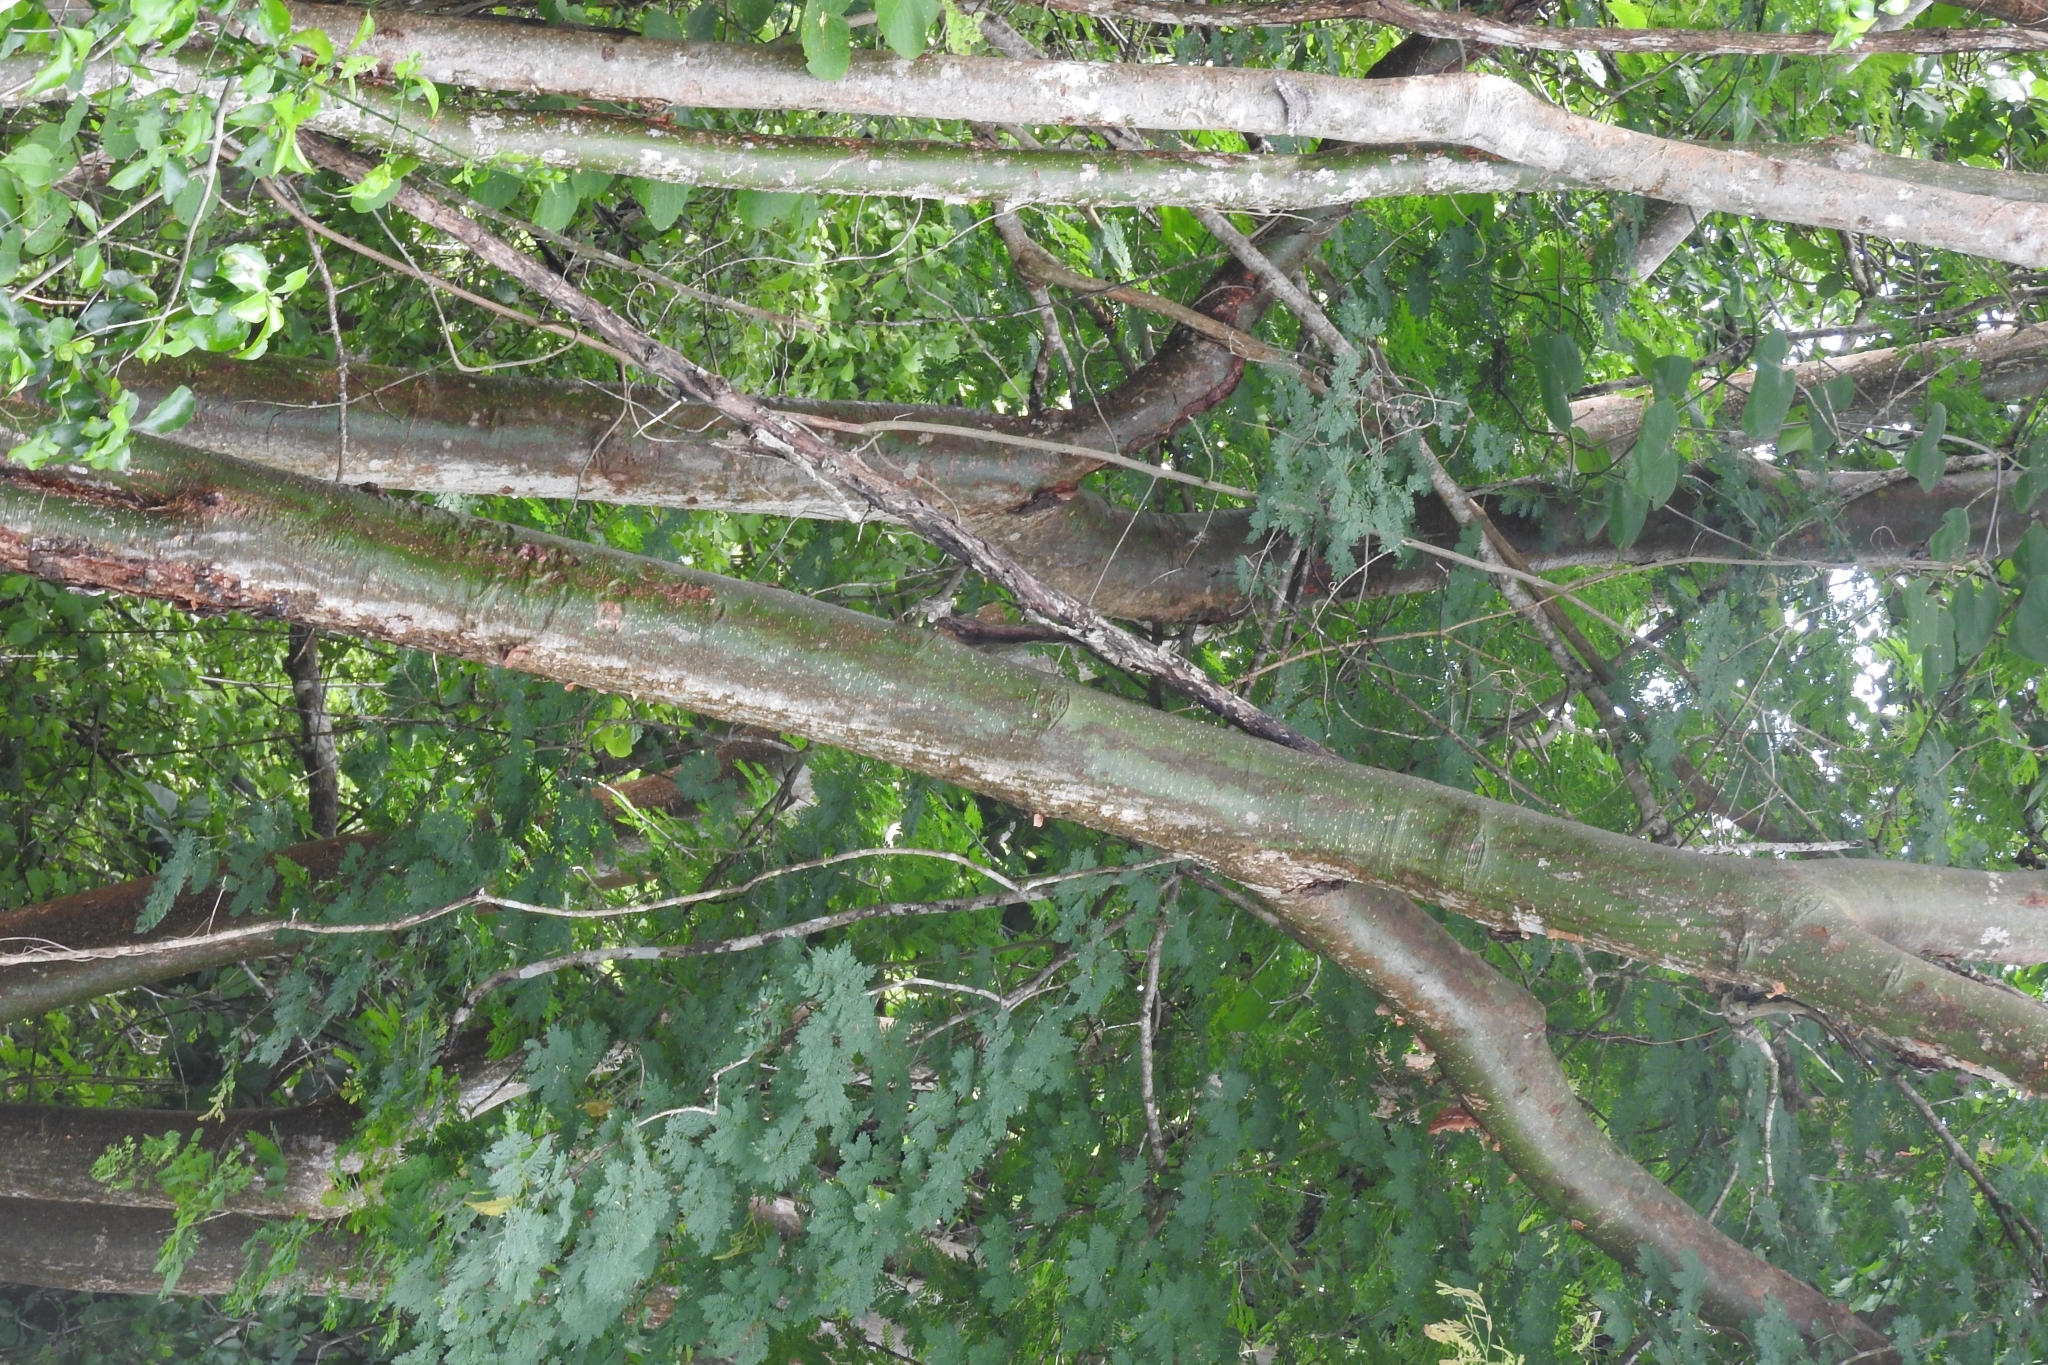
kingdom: Plantae
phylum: Tracheophyta
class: Magnoliopsida
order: Sapindales
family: Burseraceae
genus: Bursera
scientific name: Bursera simaruba
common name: Turpentine tree
